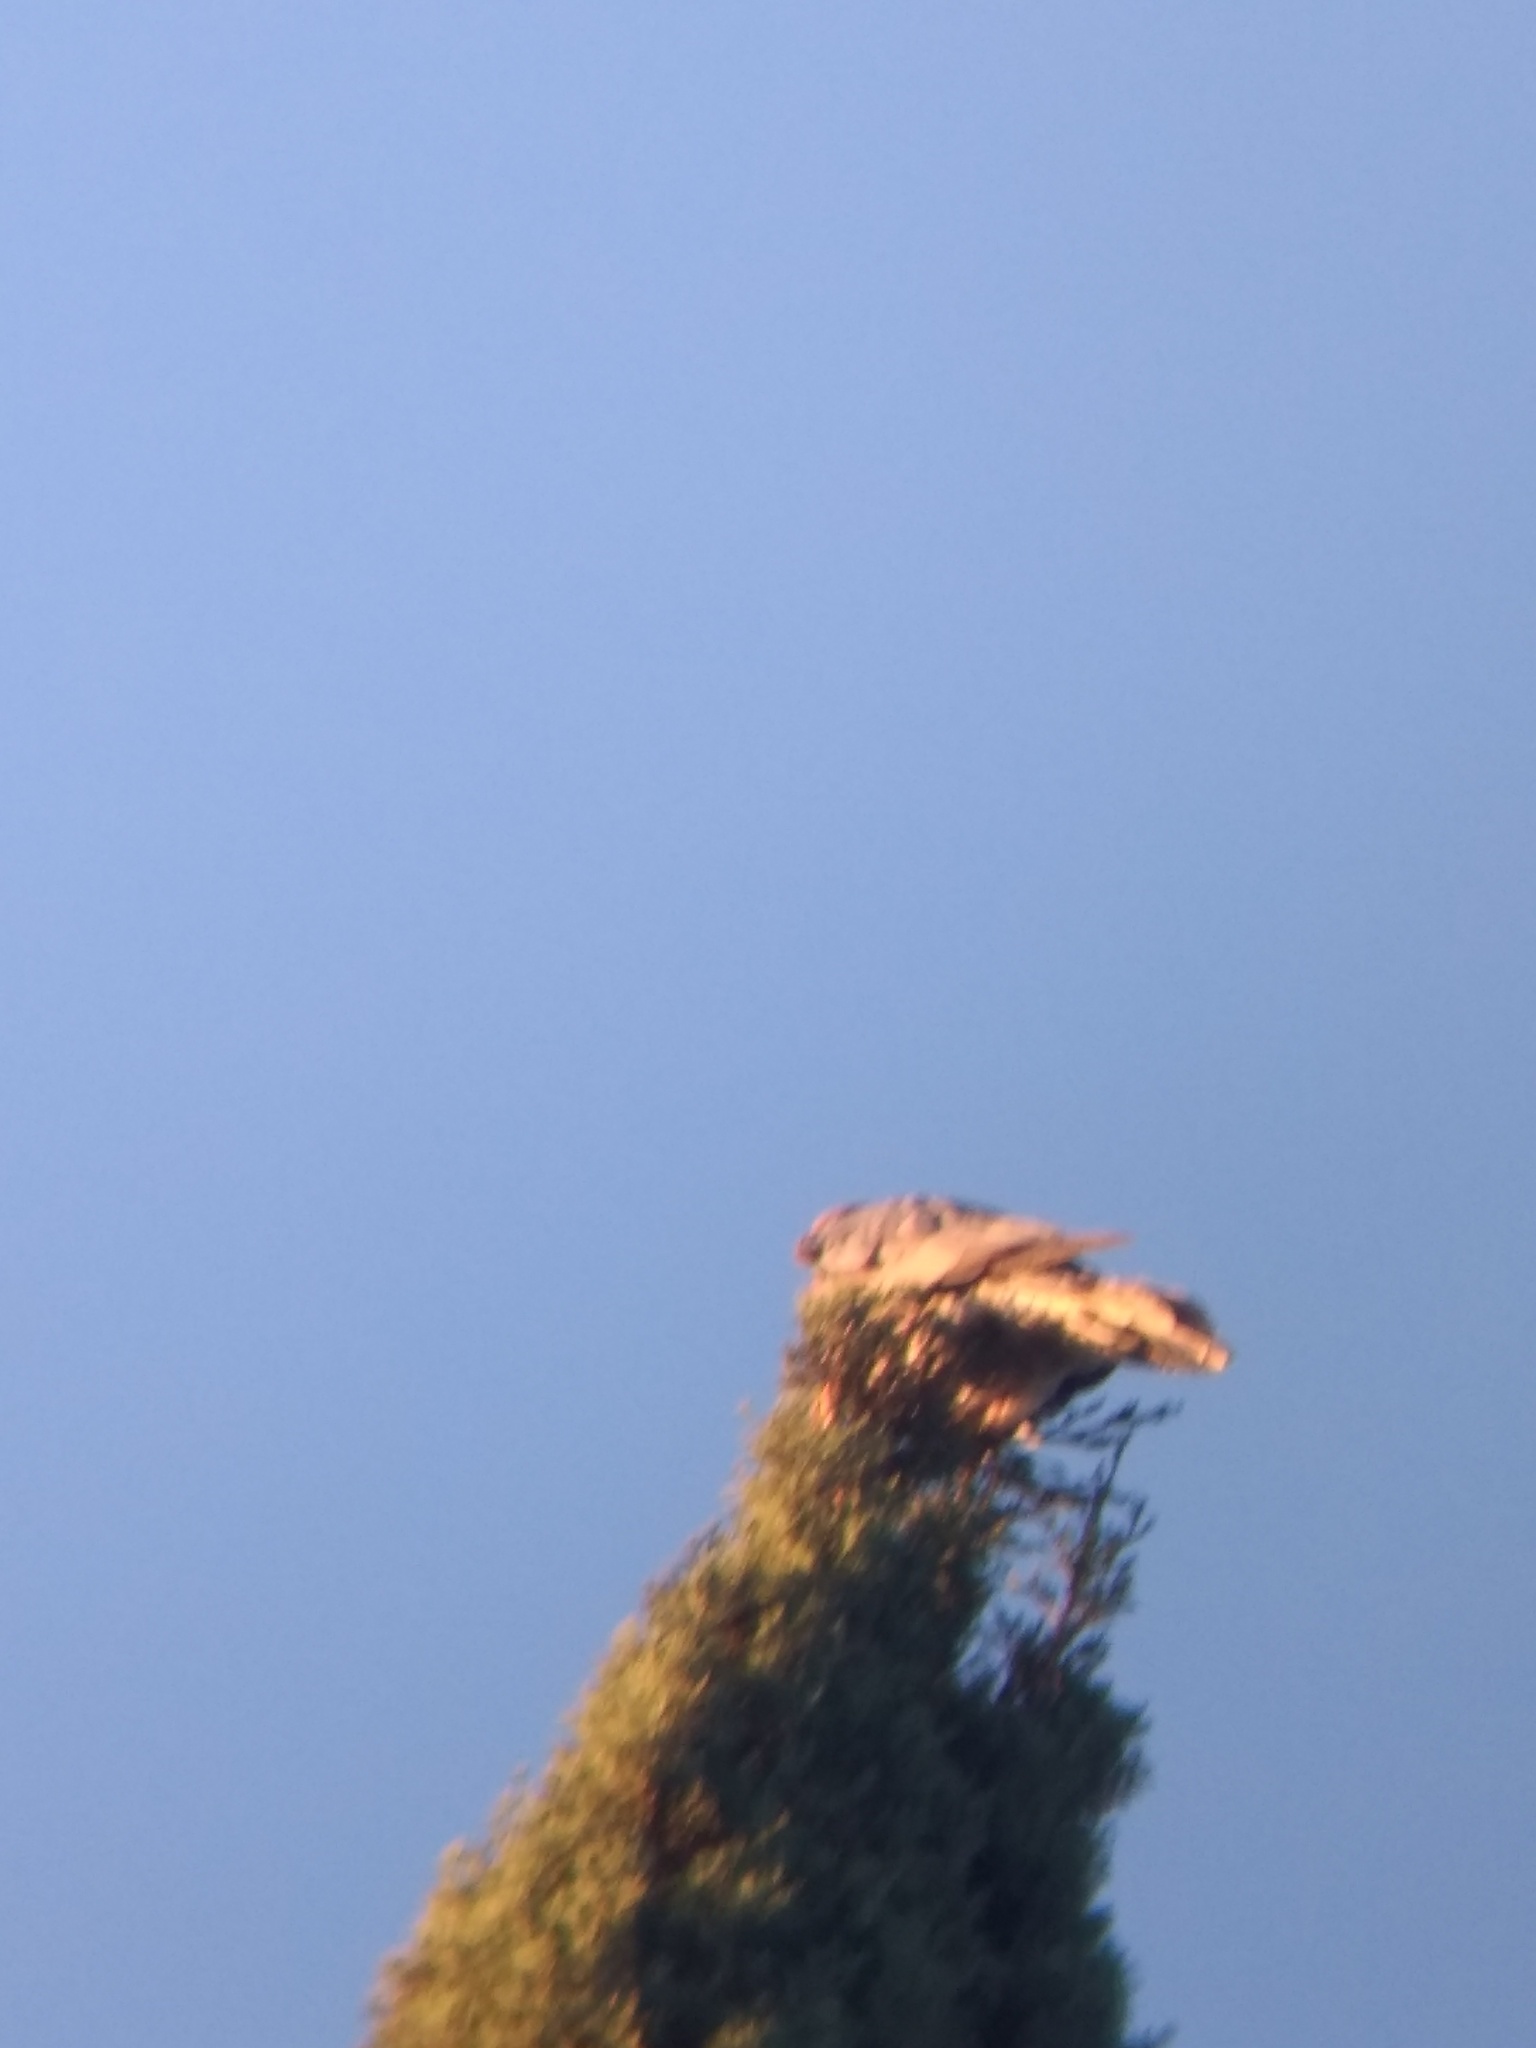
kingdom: Animalia
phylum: Chordata
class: Aves
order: Columbiformes
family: Columbidae
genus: Patagioenas
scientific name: Patagioenas fasciata
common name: Band-tailed pigeon
